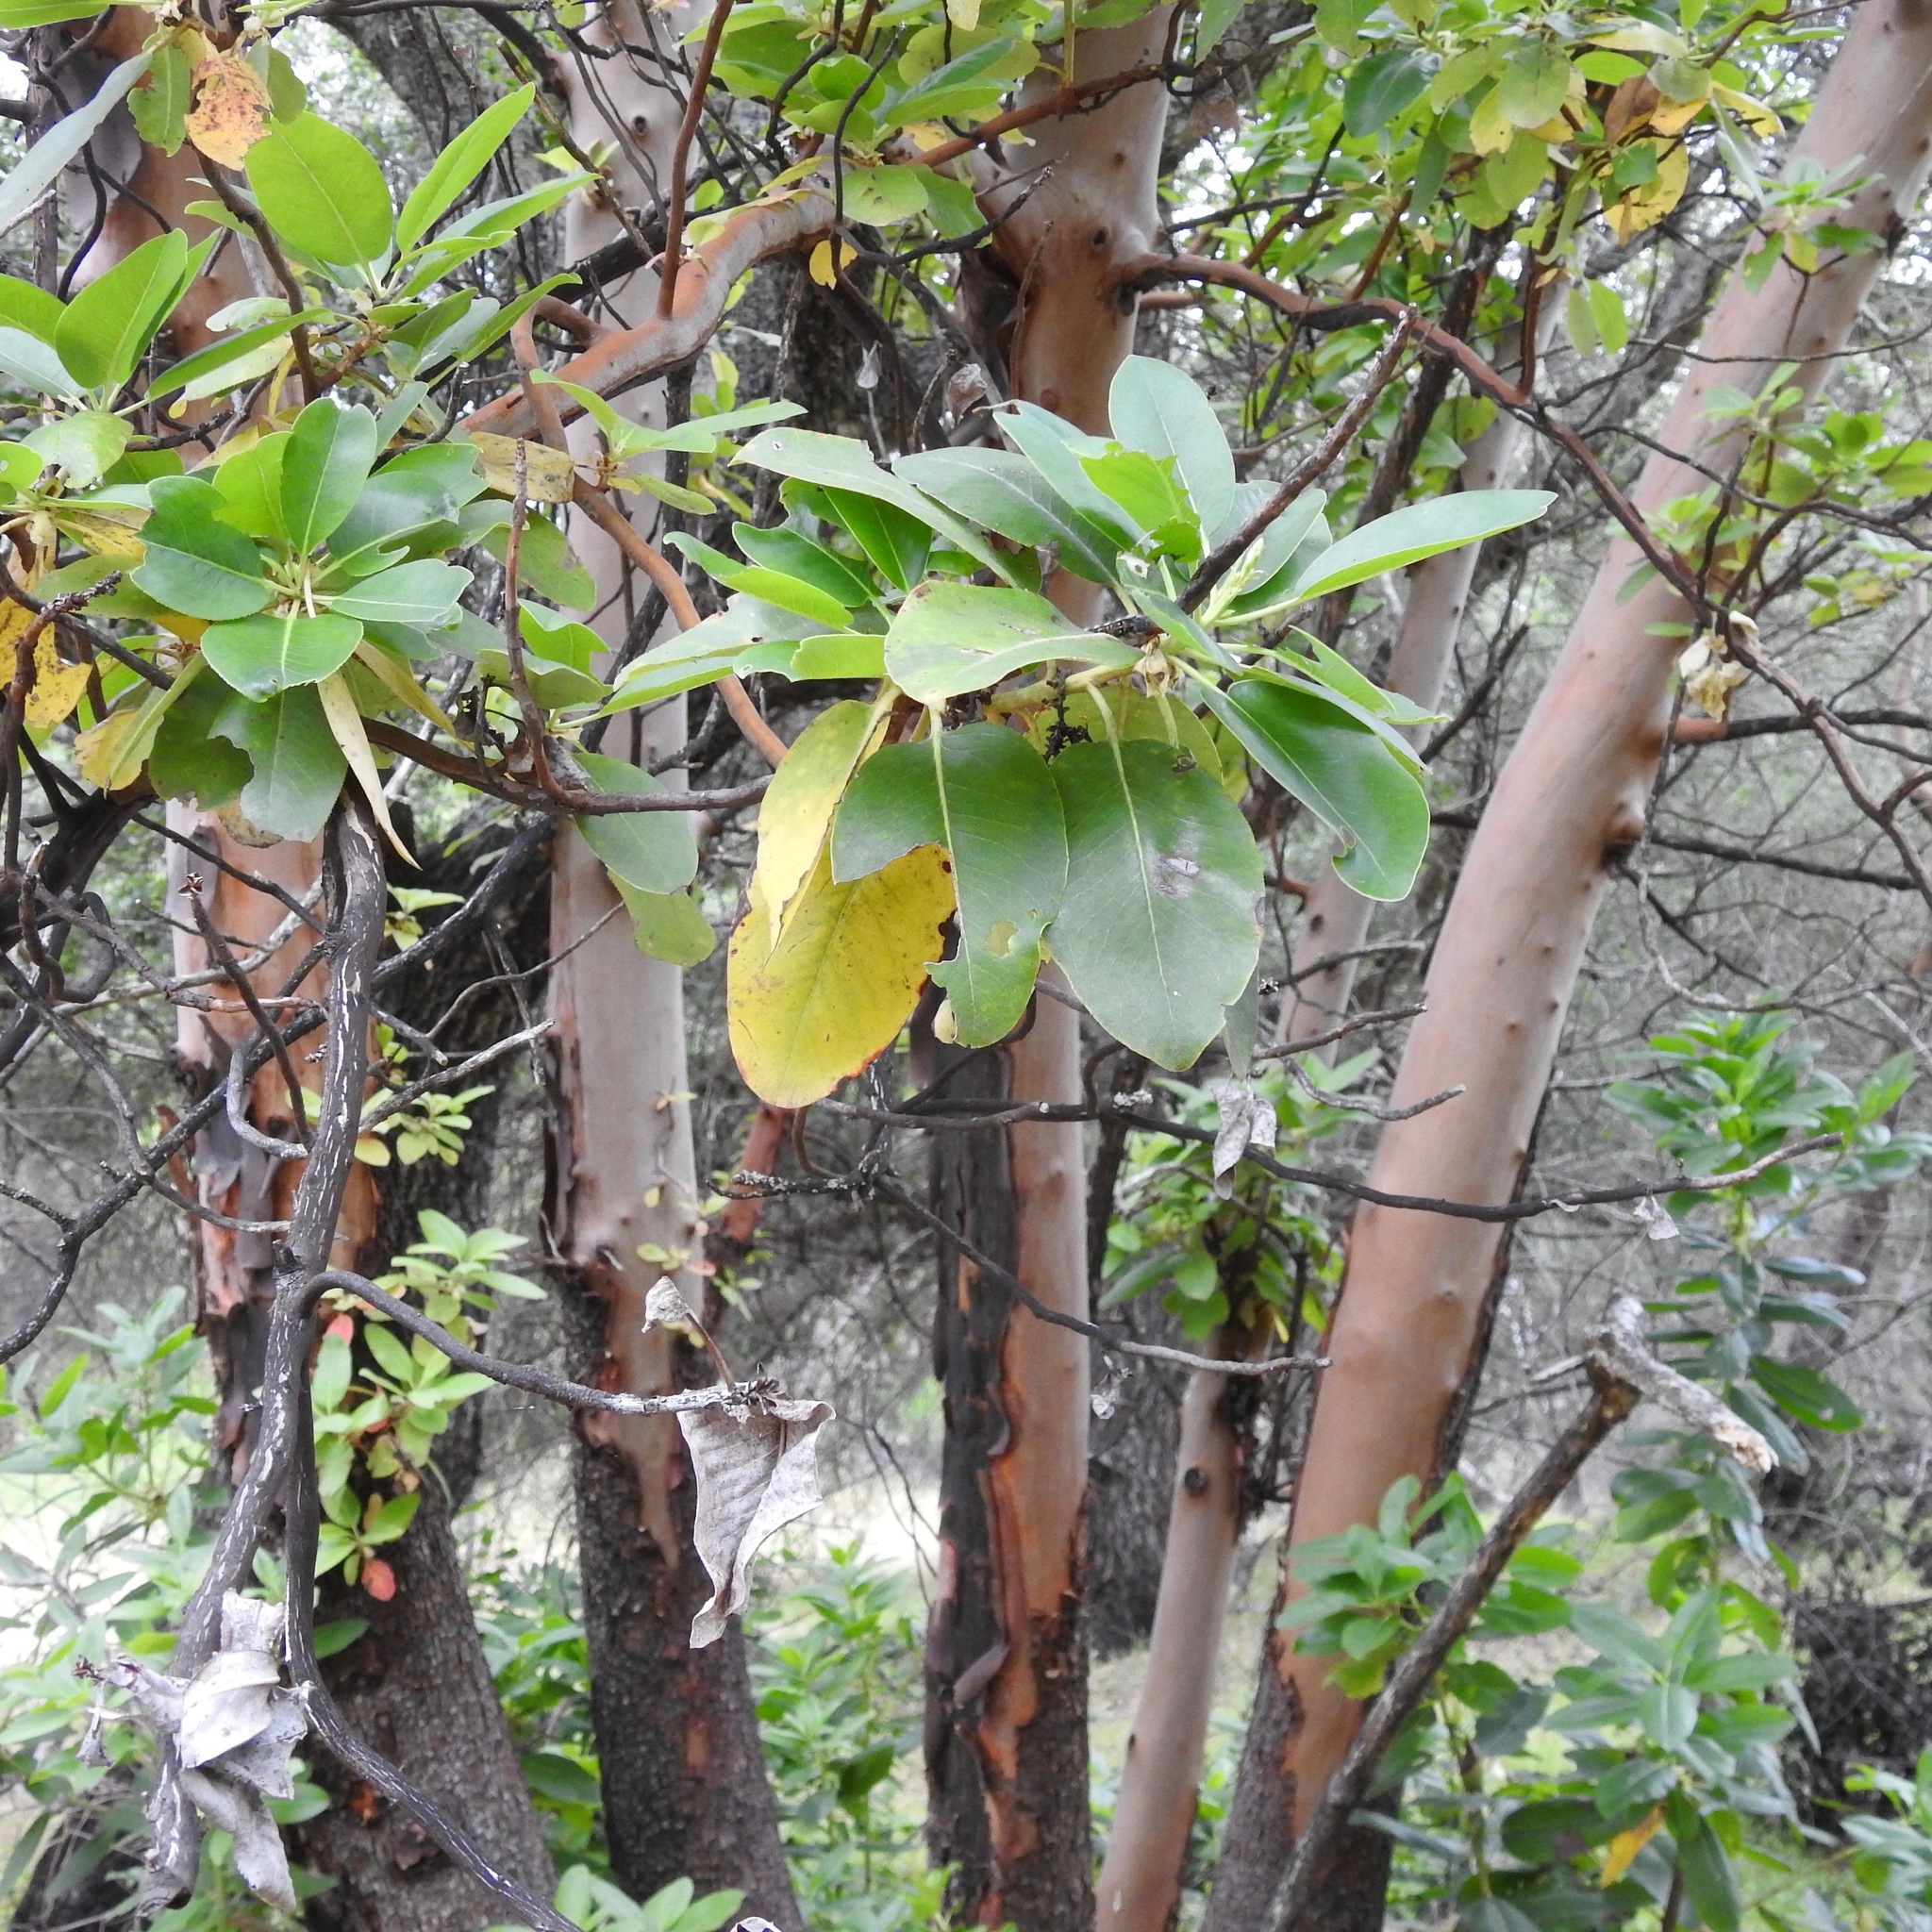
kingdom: Plantae
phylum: Tracheophyta
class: Magnoliopsida
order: Ericales
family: Ericaceae
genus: Arbutus
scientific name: Arbutus menziesii
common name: Pacific madrone
